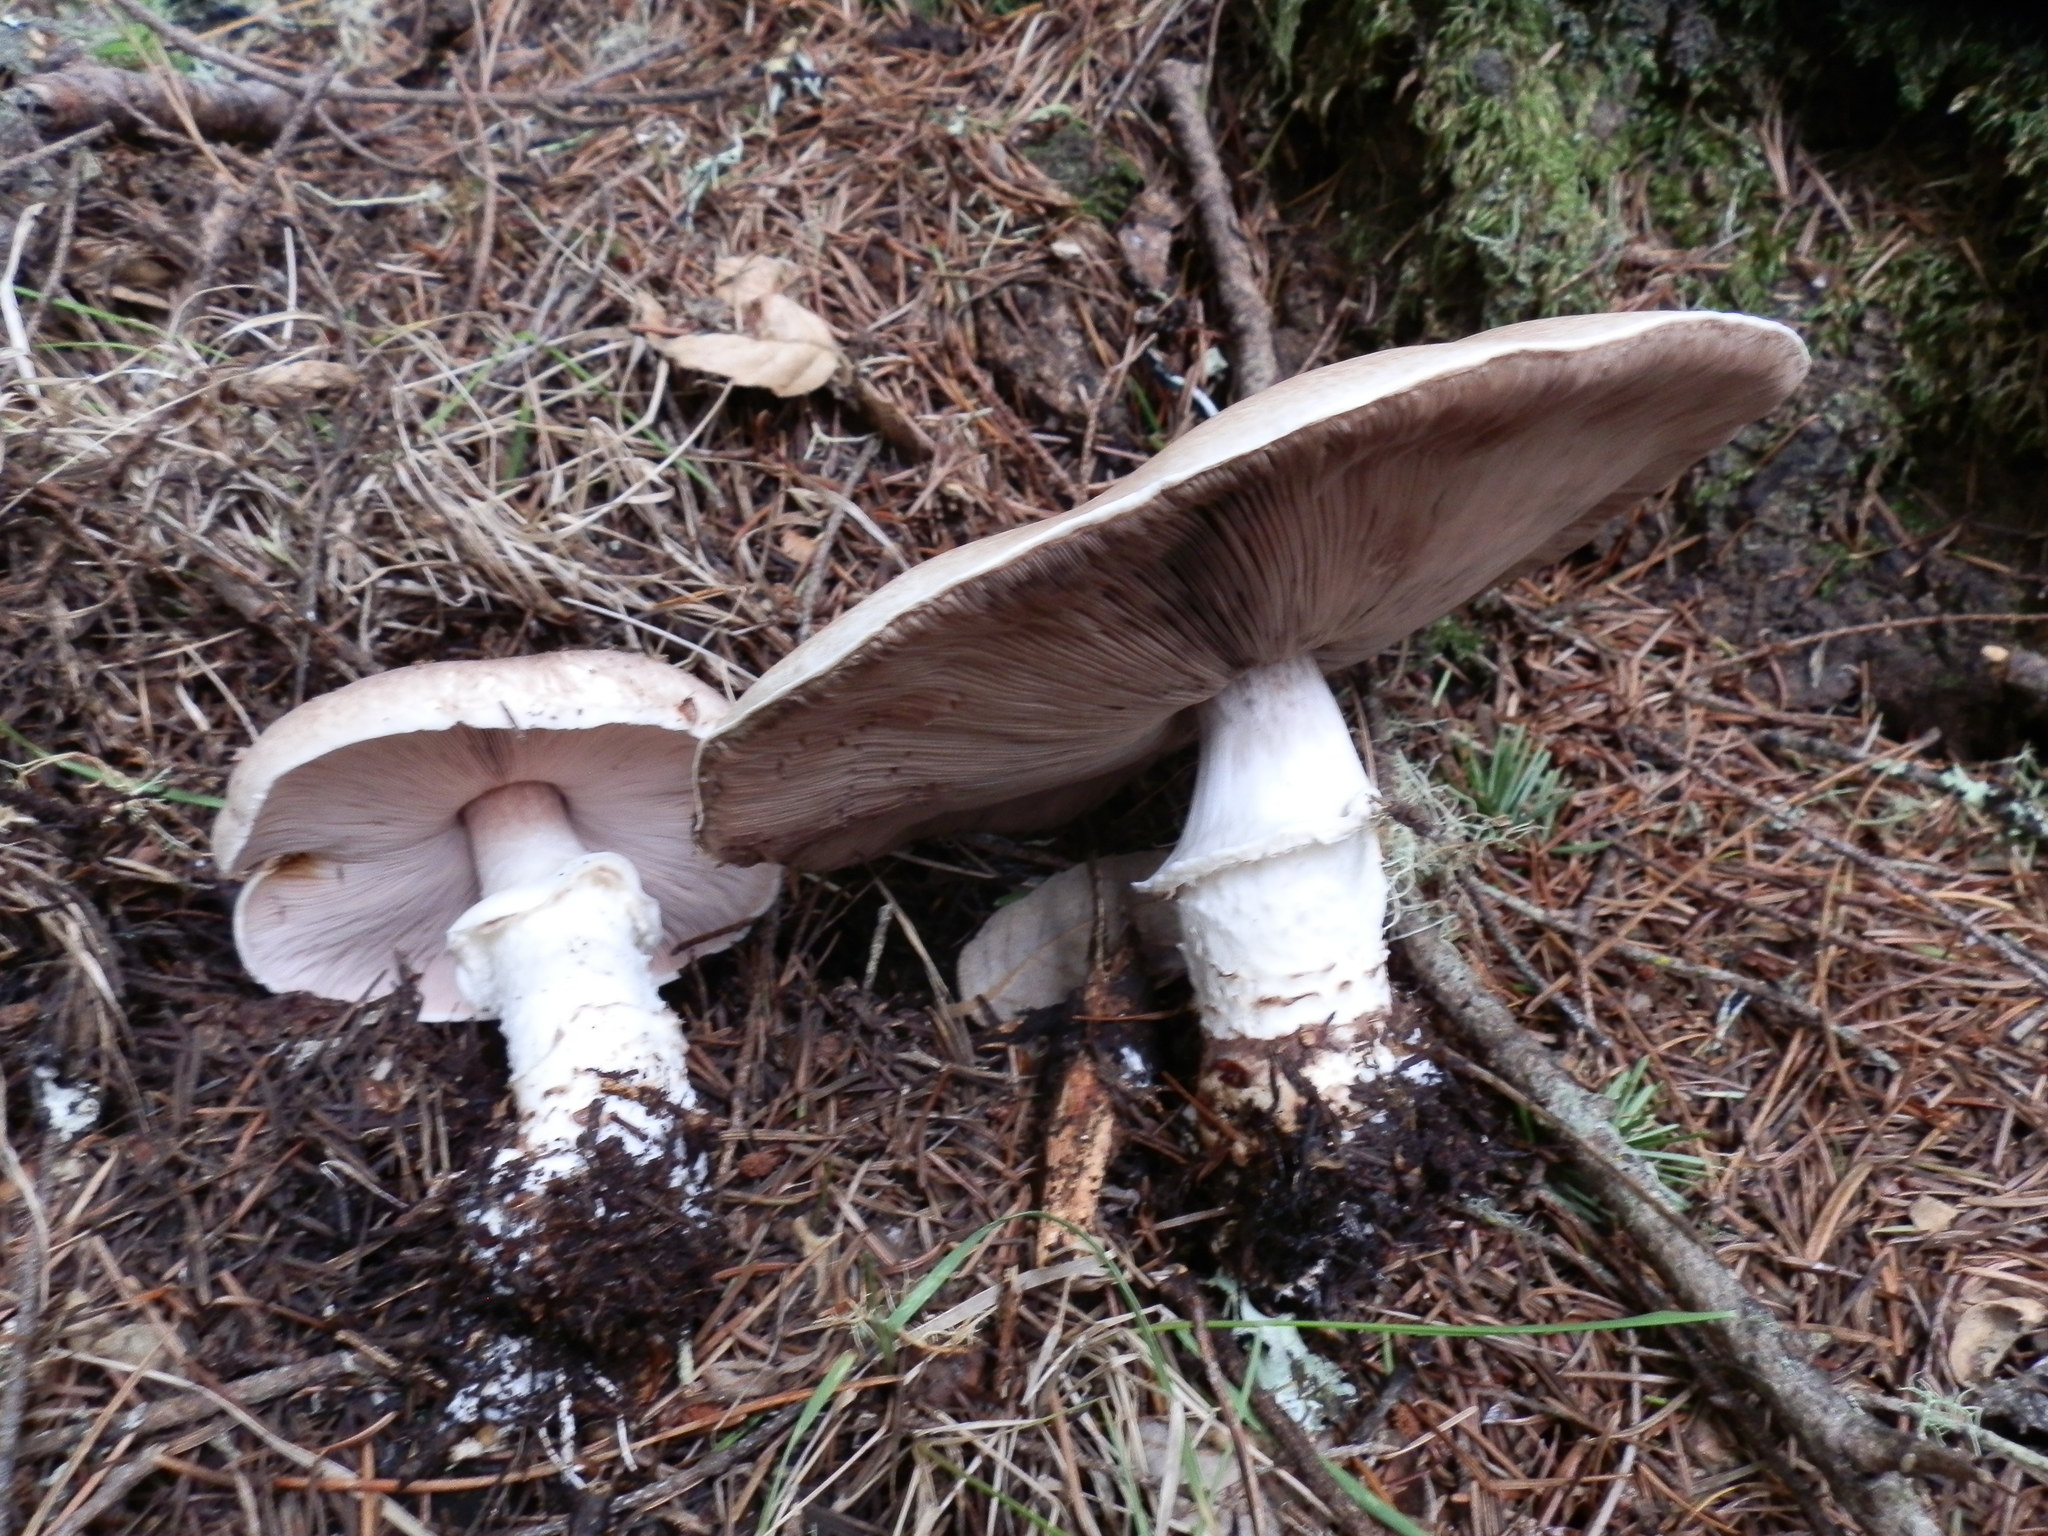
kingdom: Fungi
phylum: Basidiomycota
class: Agaricomycetes
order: Agaricales
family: Agaricaceae
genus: Agaricus
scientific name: Agaricus subrutilescens
